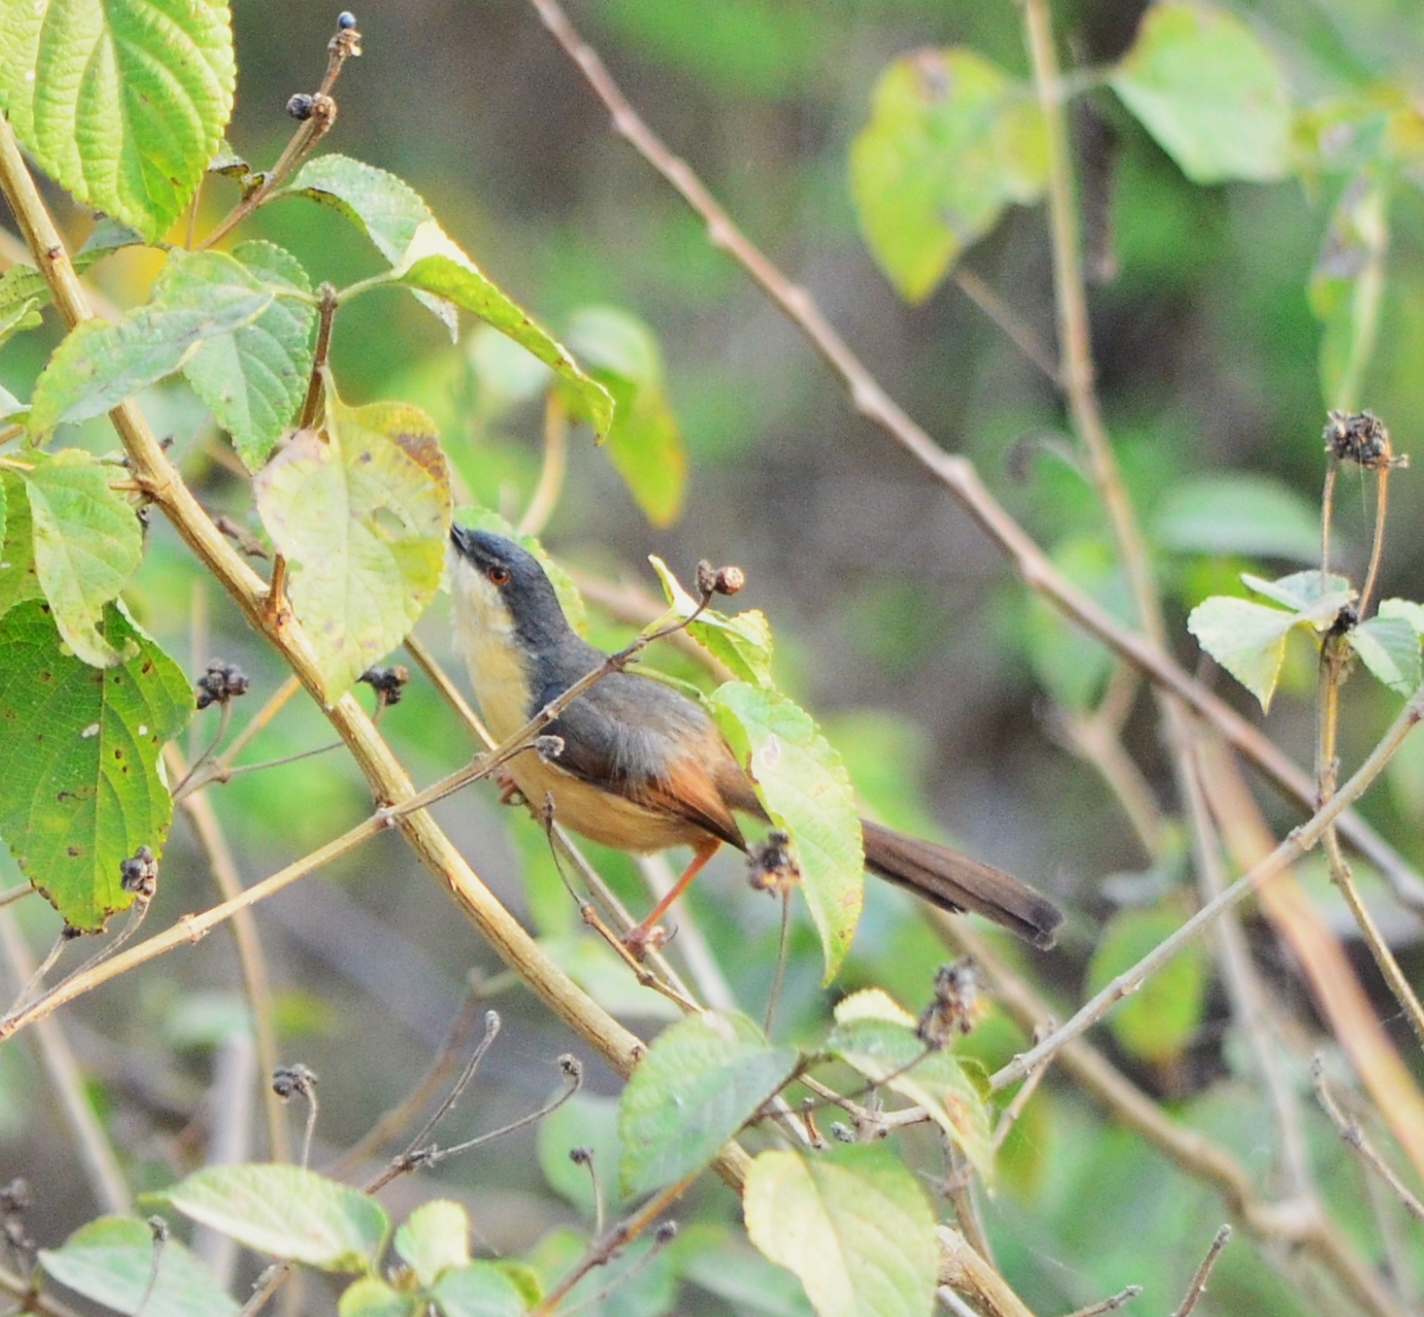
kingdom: Animalia
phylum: Chordata
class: Aves
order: Passeriformes
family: Cisticolidae
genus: Prinia
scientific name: Prinia socialis
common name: Ashy prinia
